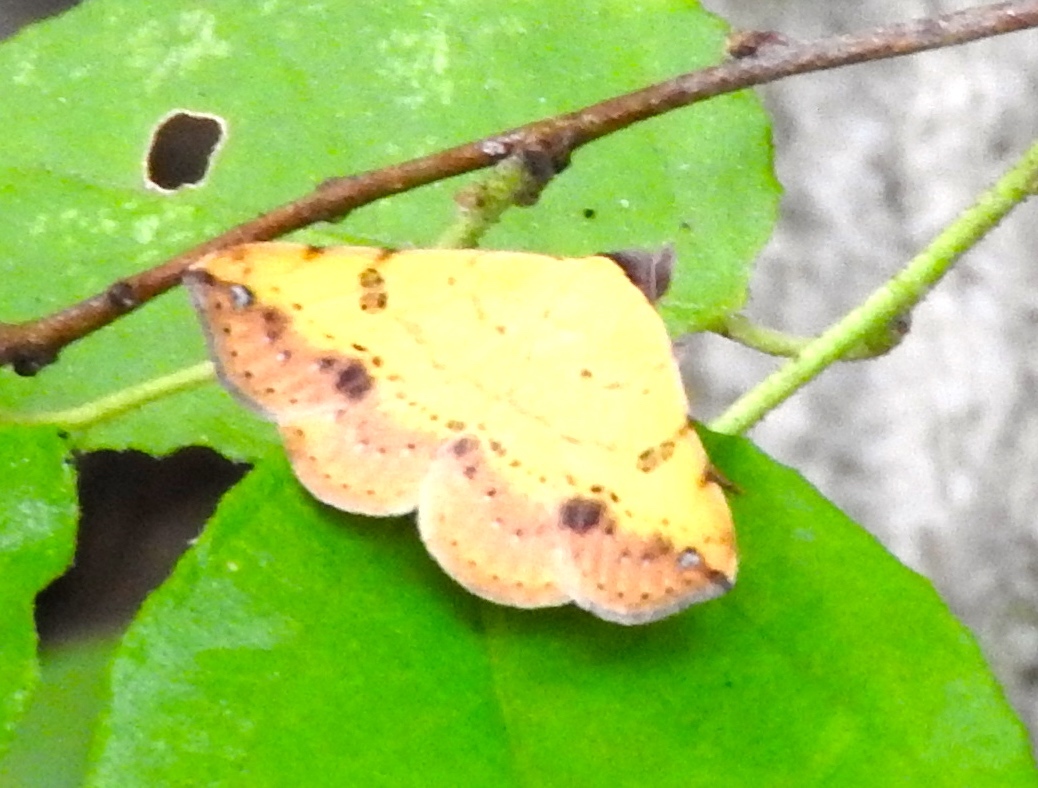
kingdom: Animalia
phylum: Arthropoda
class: Insecta
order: Lepidoptera
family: Erebidae
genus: Hemeroplanis
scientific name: Hemeroplanis scopulepes
